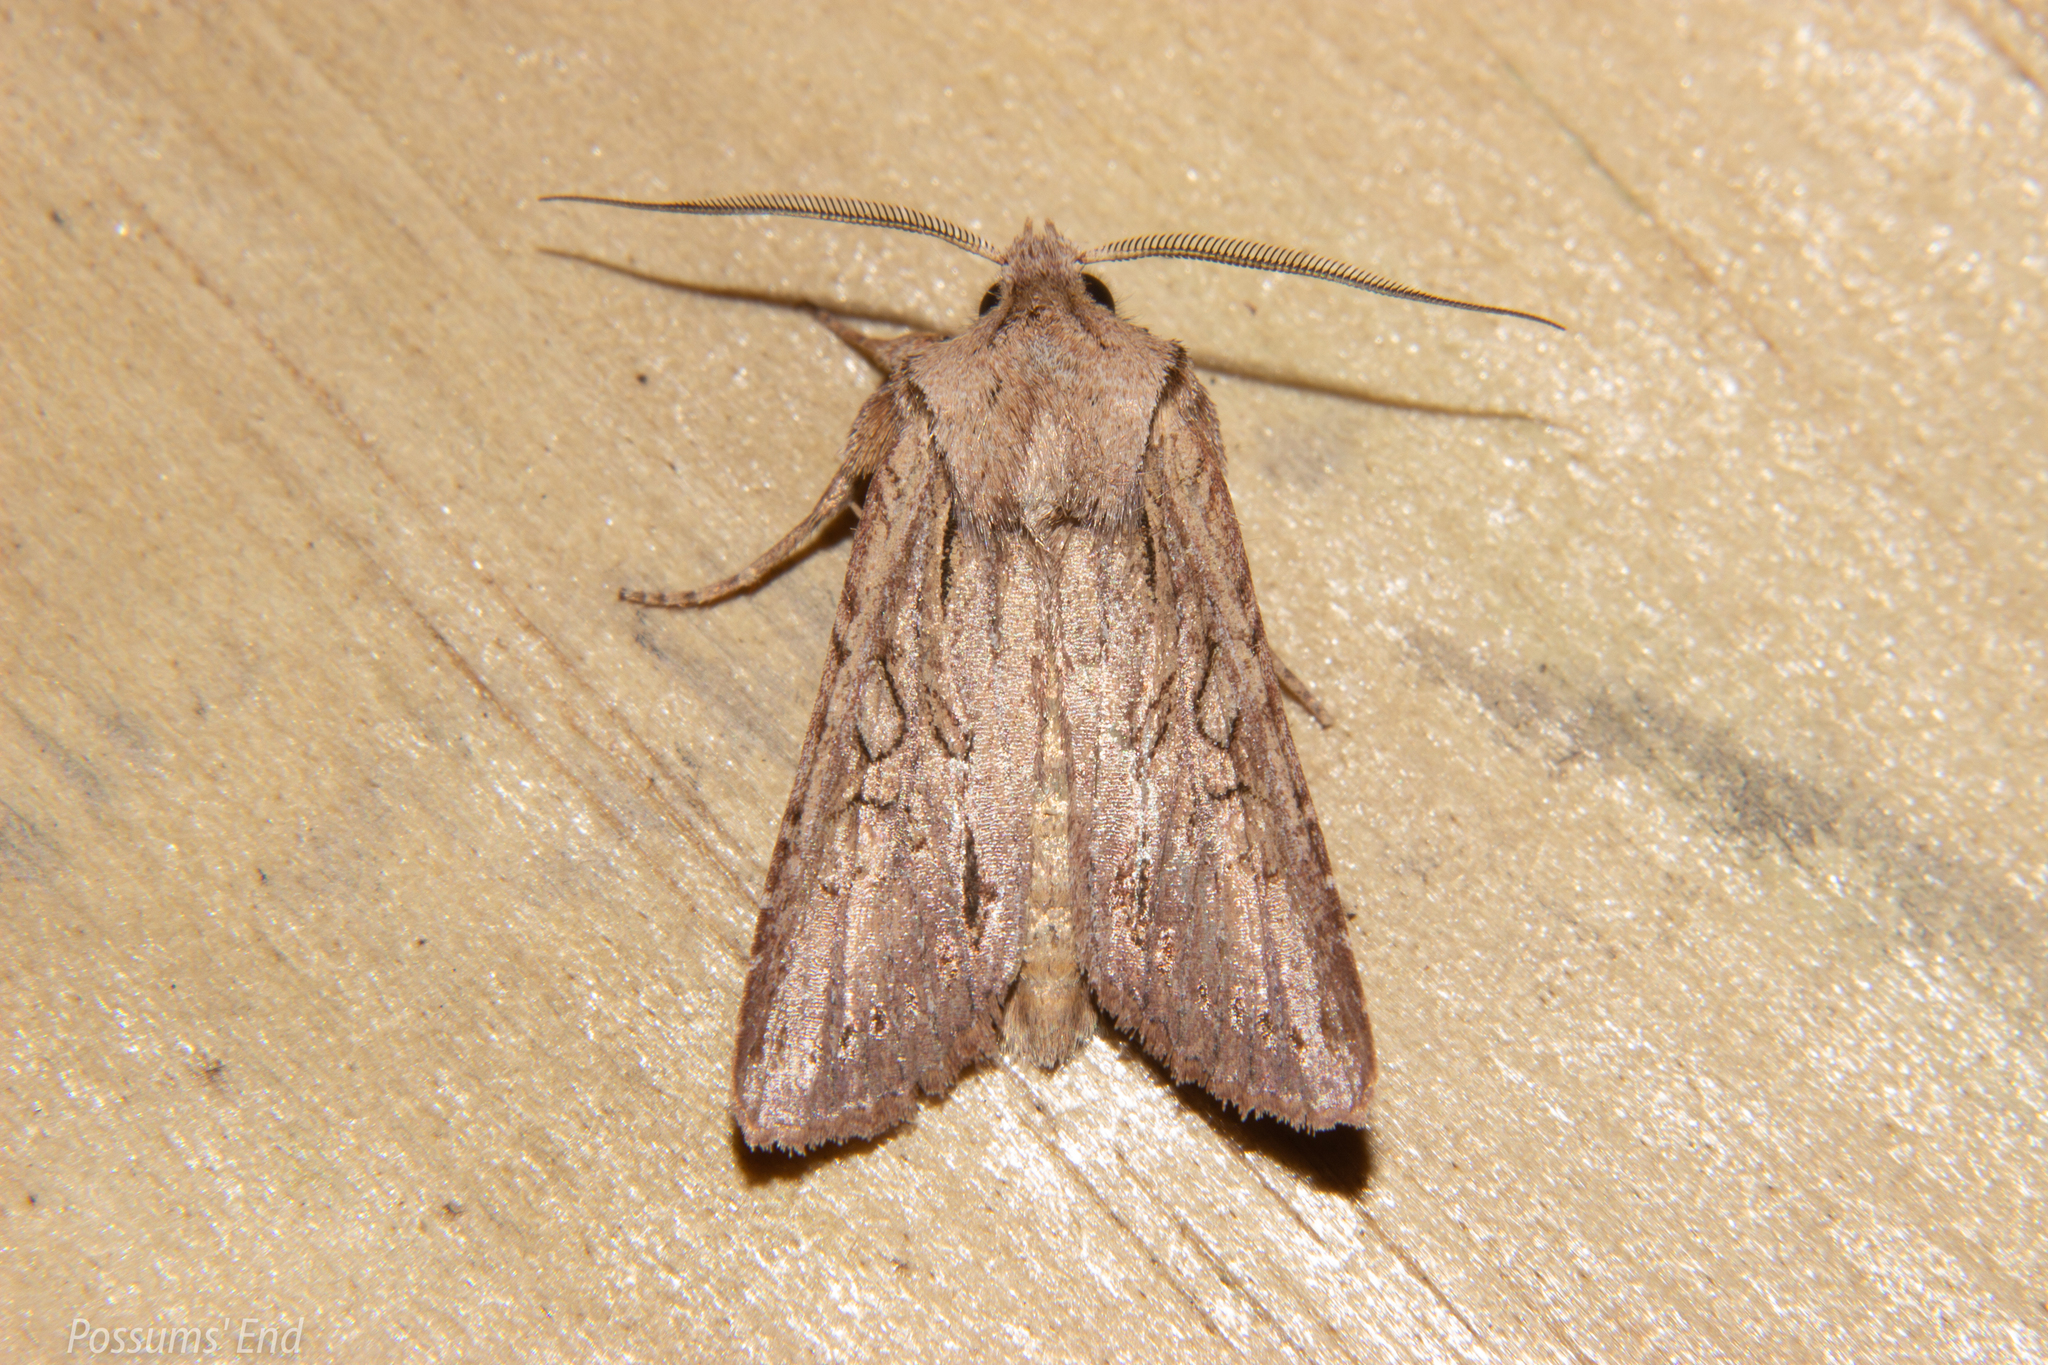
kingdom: Animalia
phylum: Arthropoda
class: Insecta
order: Lepidoptera
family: Noctuidae
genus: Ichneutica
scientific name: Ichneutica
